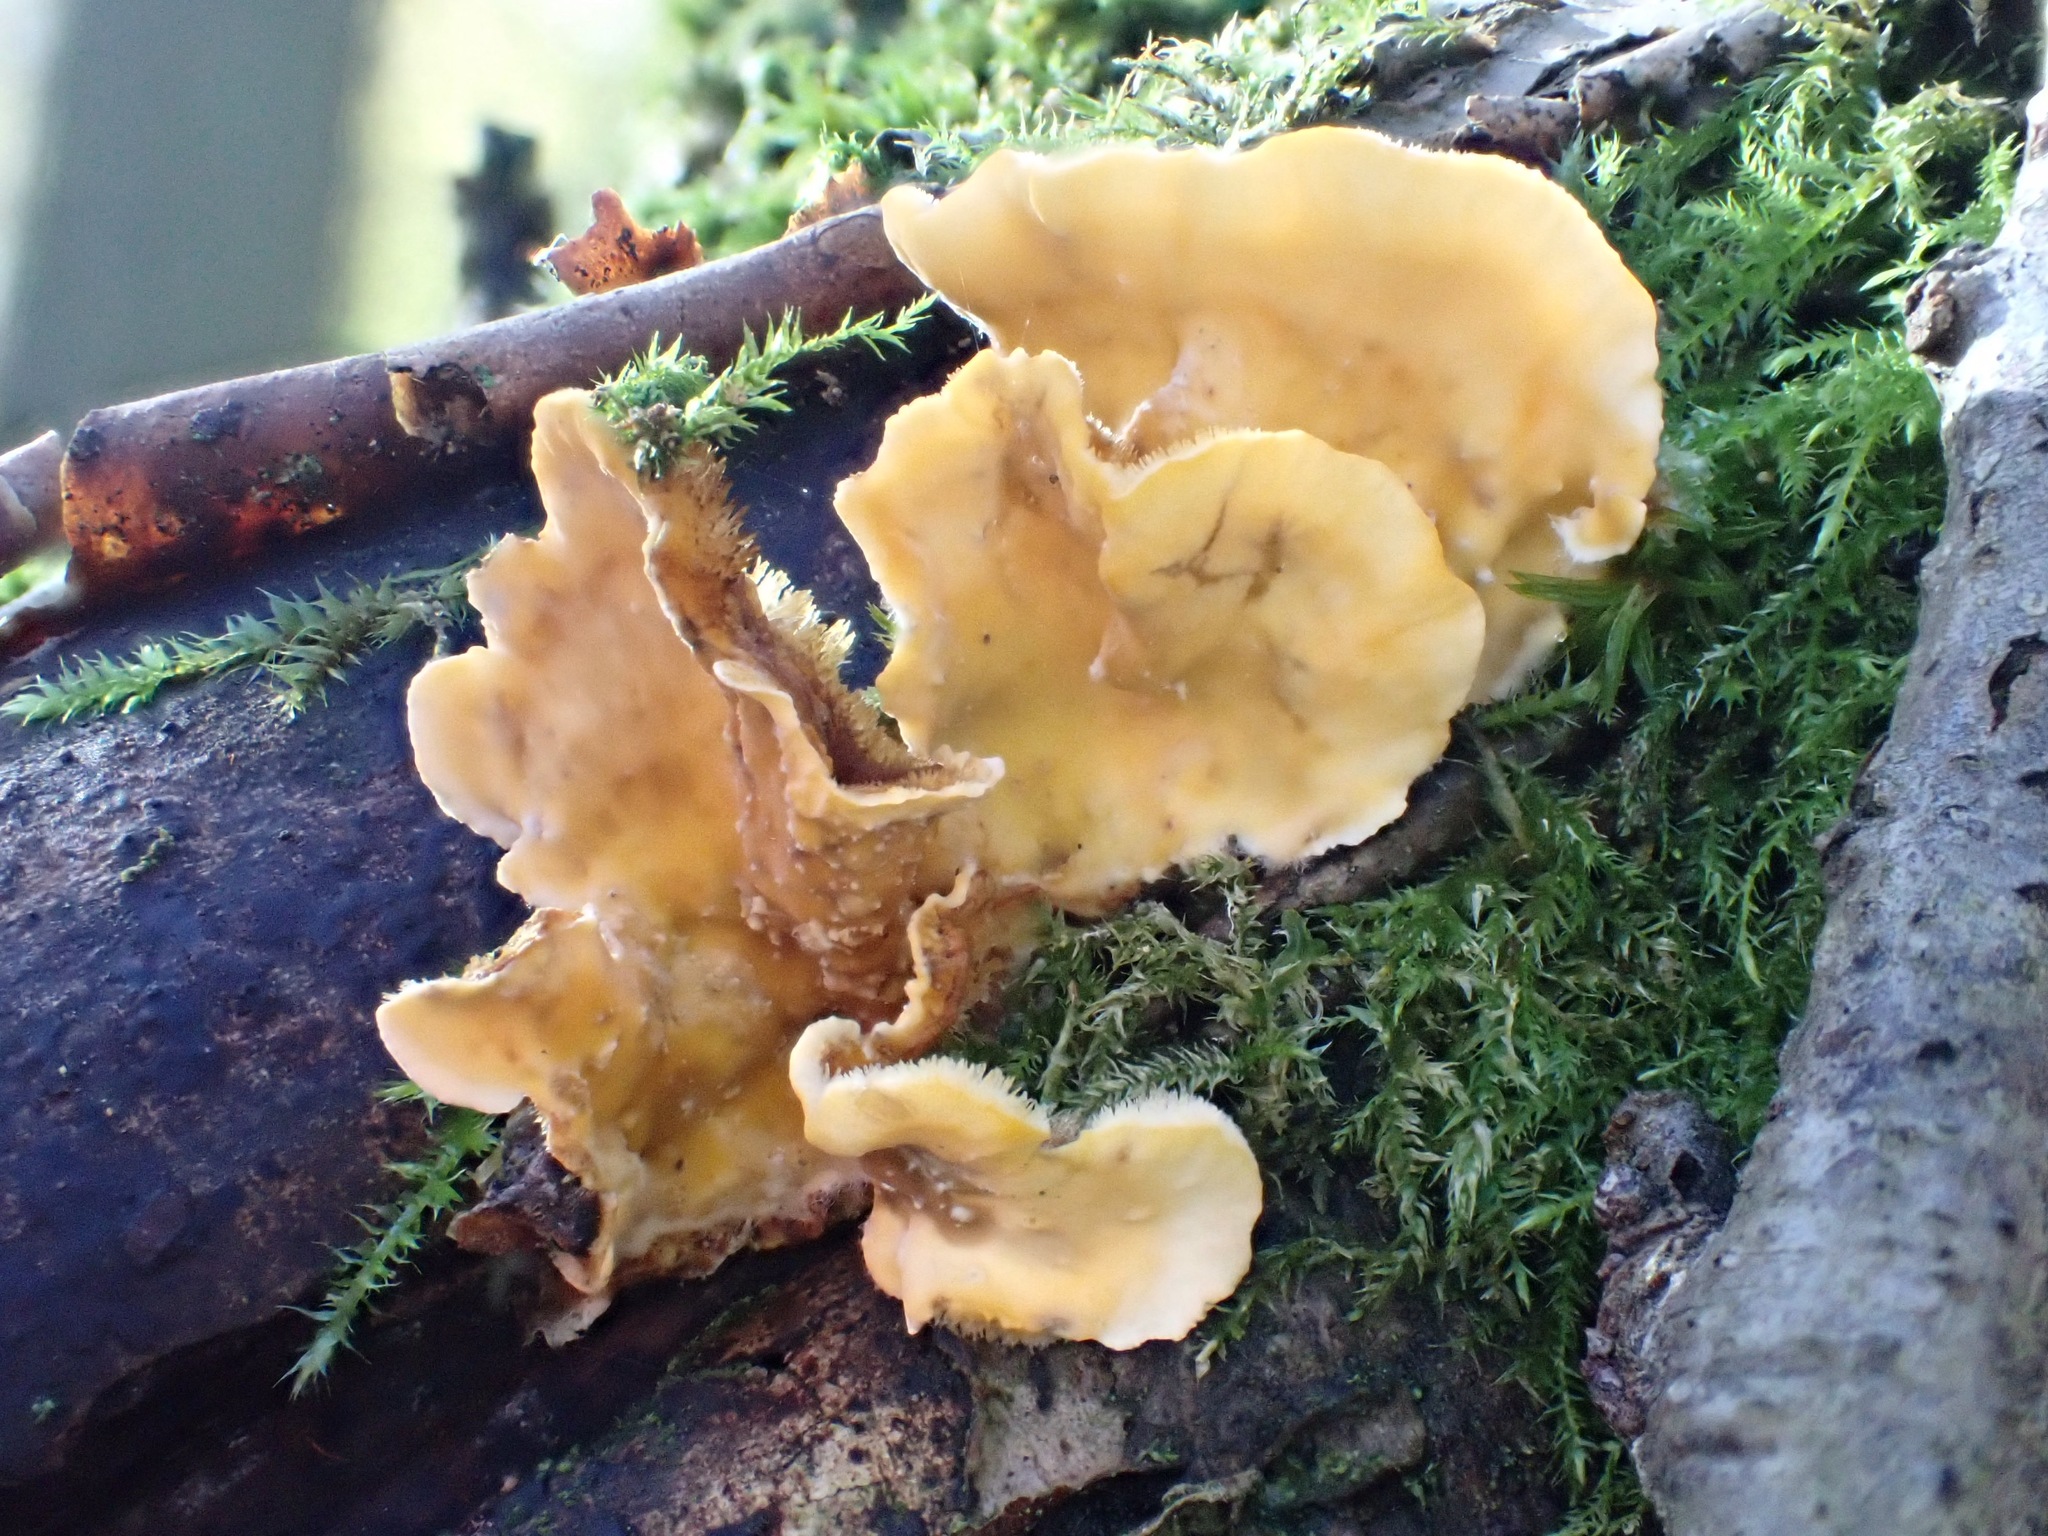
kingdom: Fungi
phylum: Basidiomycota
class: Agaricomycetes
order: Russulales
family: Stereaceae
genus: Stereum
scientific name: Stereum hirsutum
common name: Hairy curtain crust
